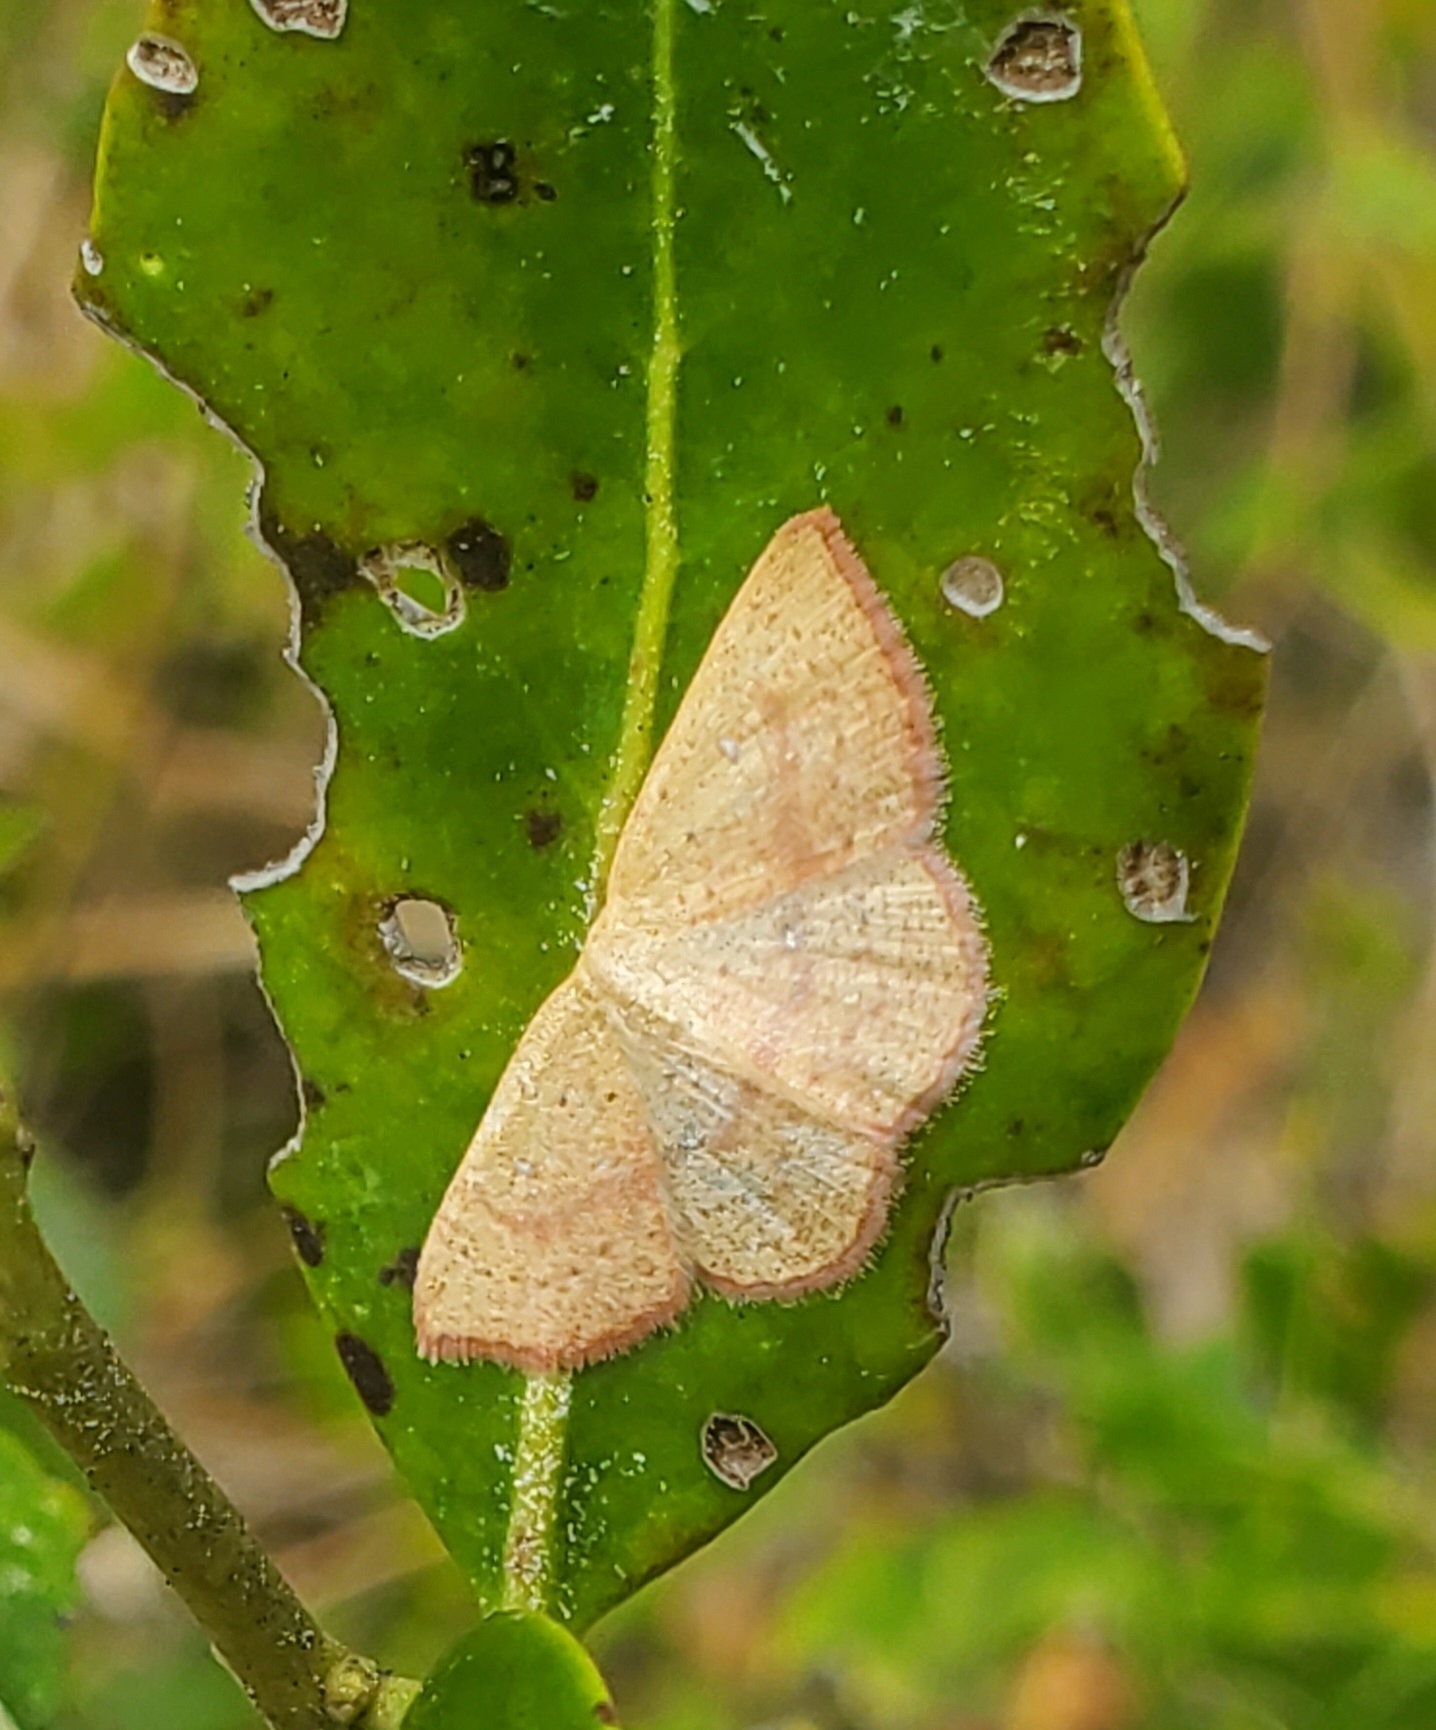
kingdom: Animalia
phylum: Arthropoda
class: Insecta
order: Lepidoptera
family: Geometridae
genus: Cyclophora
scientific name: Cyclophora culicaria
